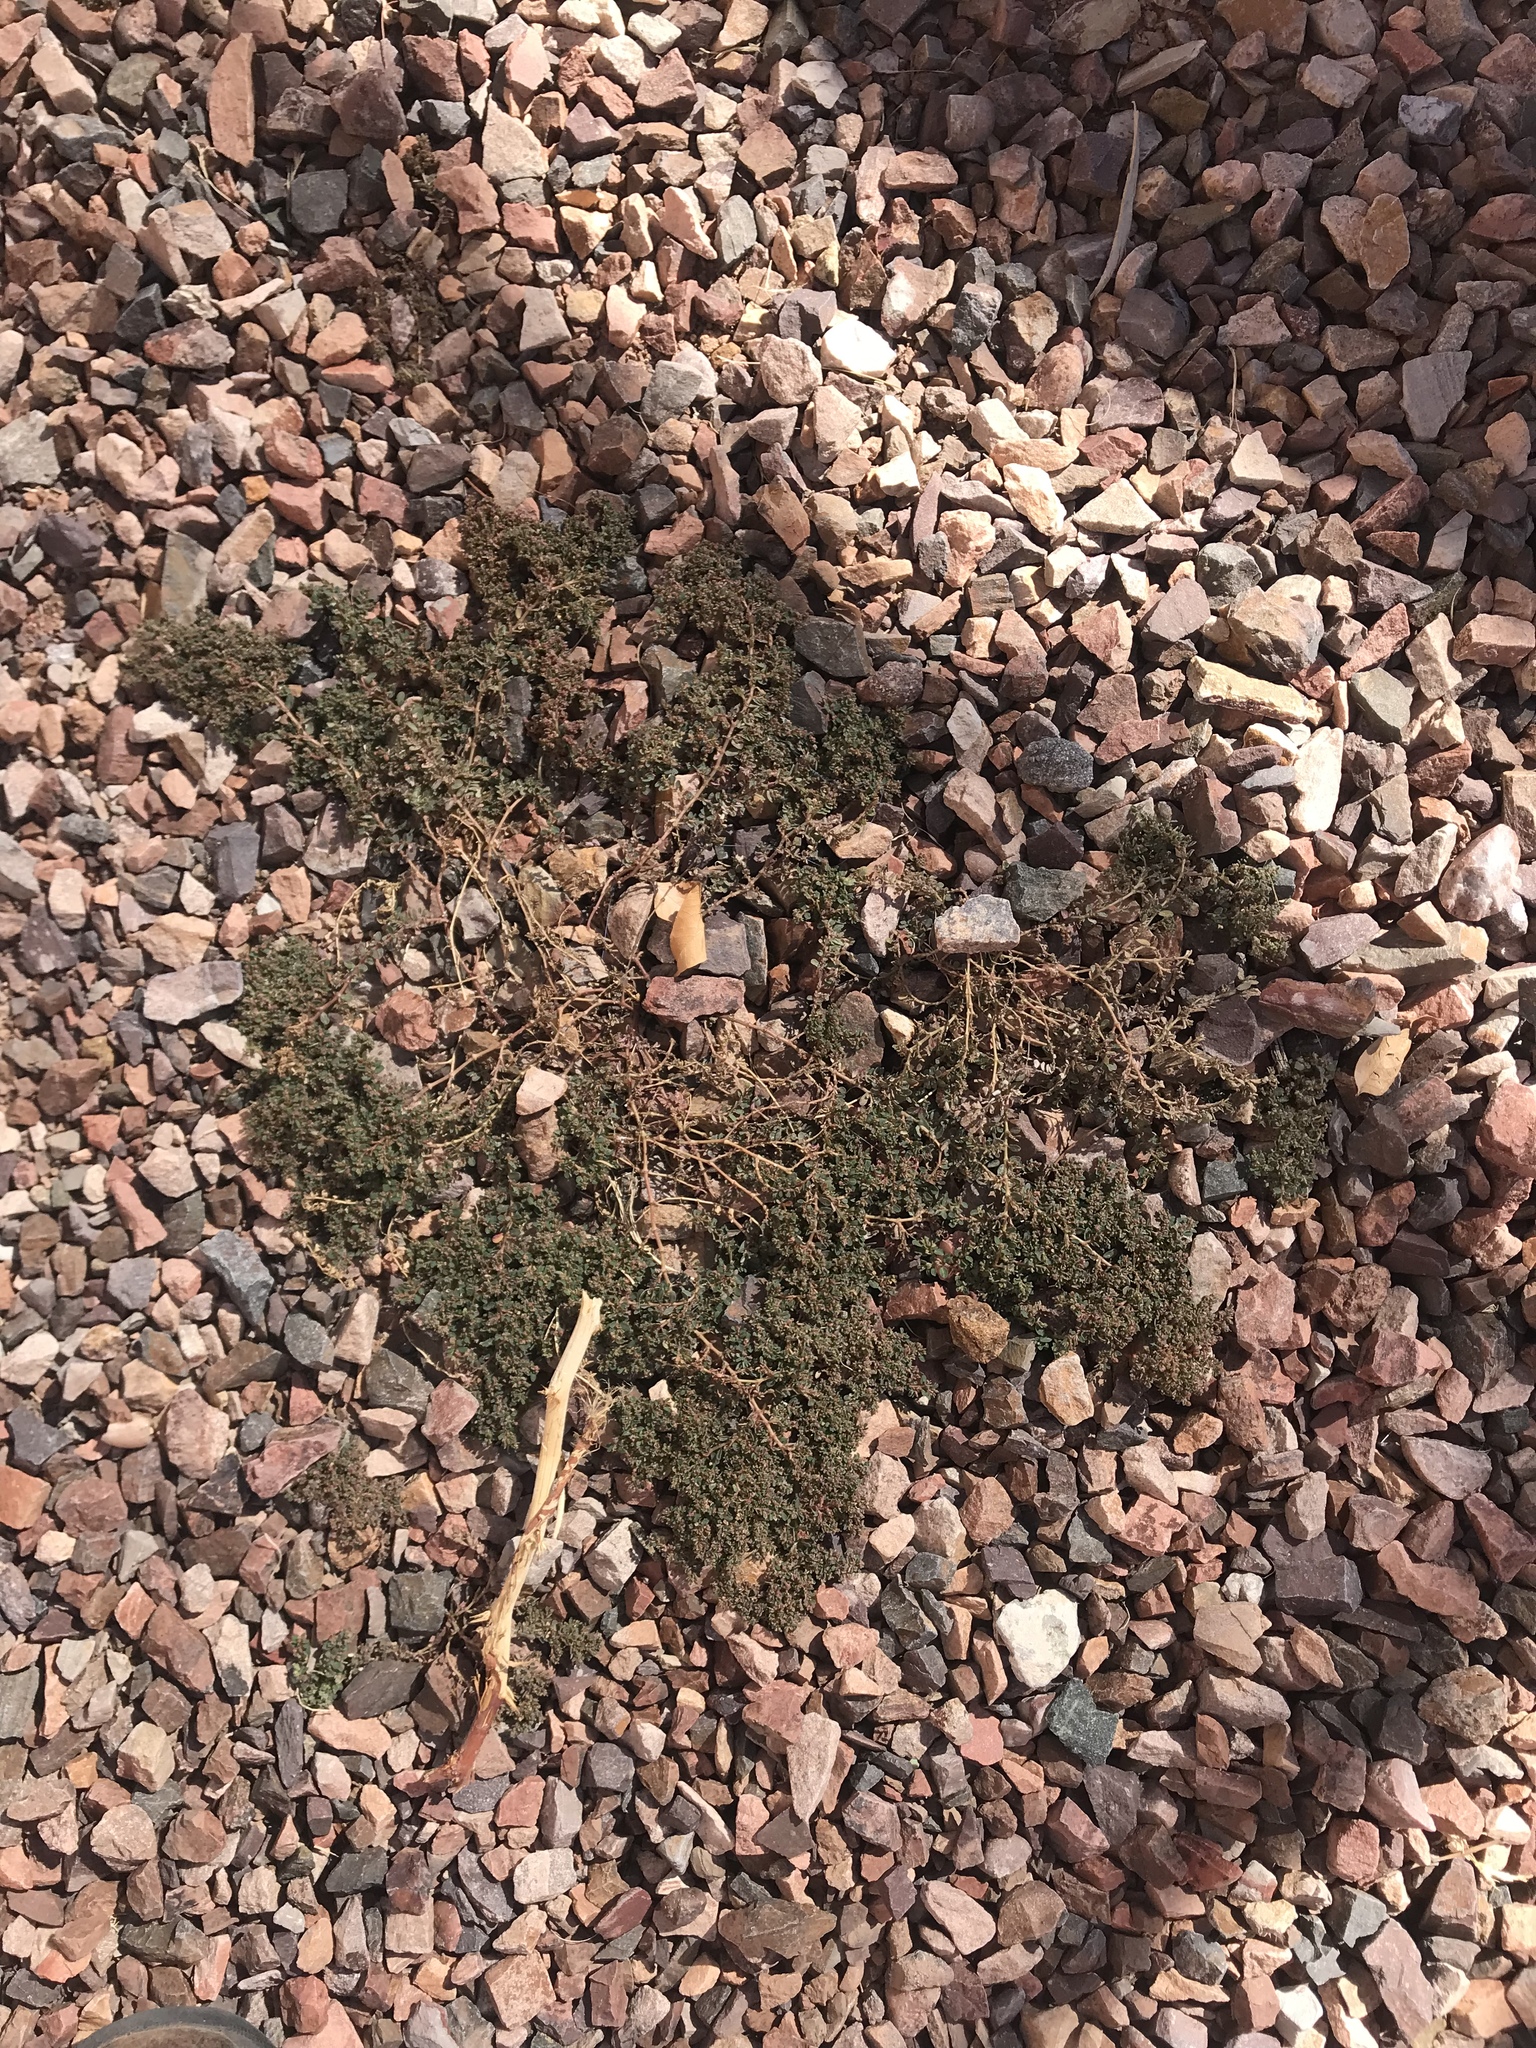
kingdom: Plantae
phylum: Tracheophyta
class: Magnoliopsida
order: Malpighiales
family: Euphorbiaceae
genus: Euphorbia
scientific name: Euphorbia prostrata
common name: Prostrate sandmat
